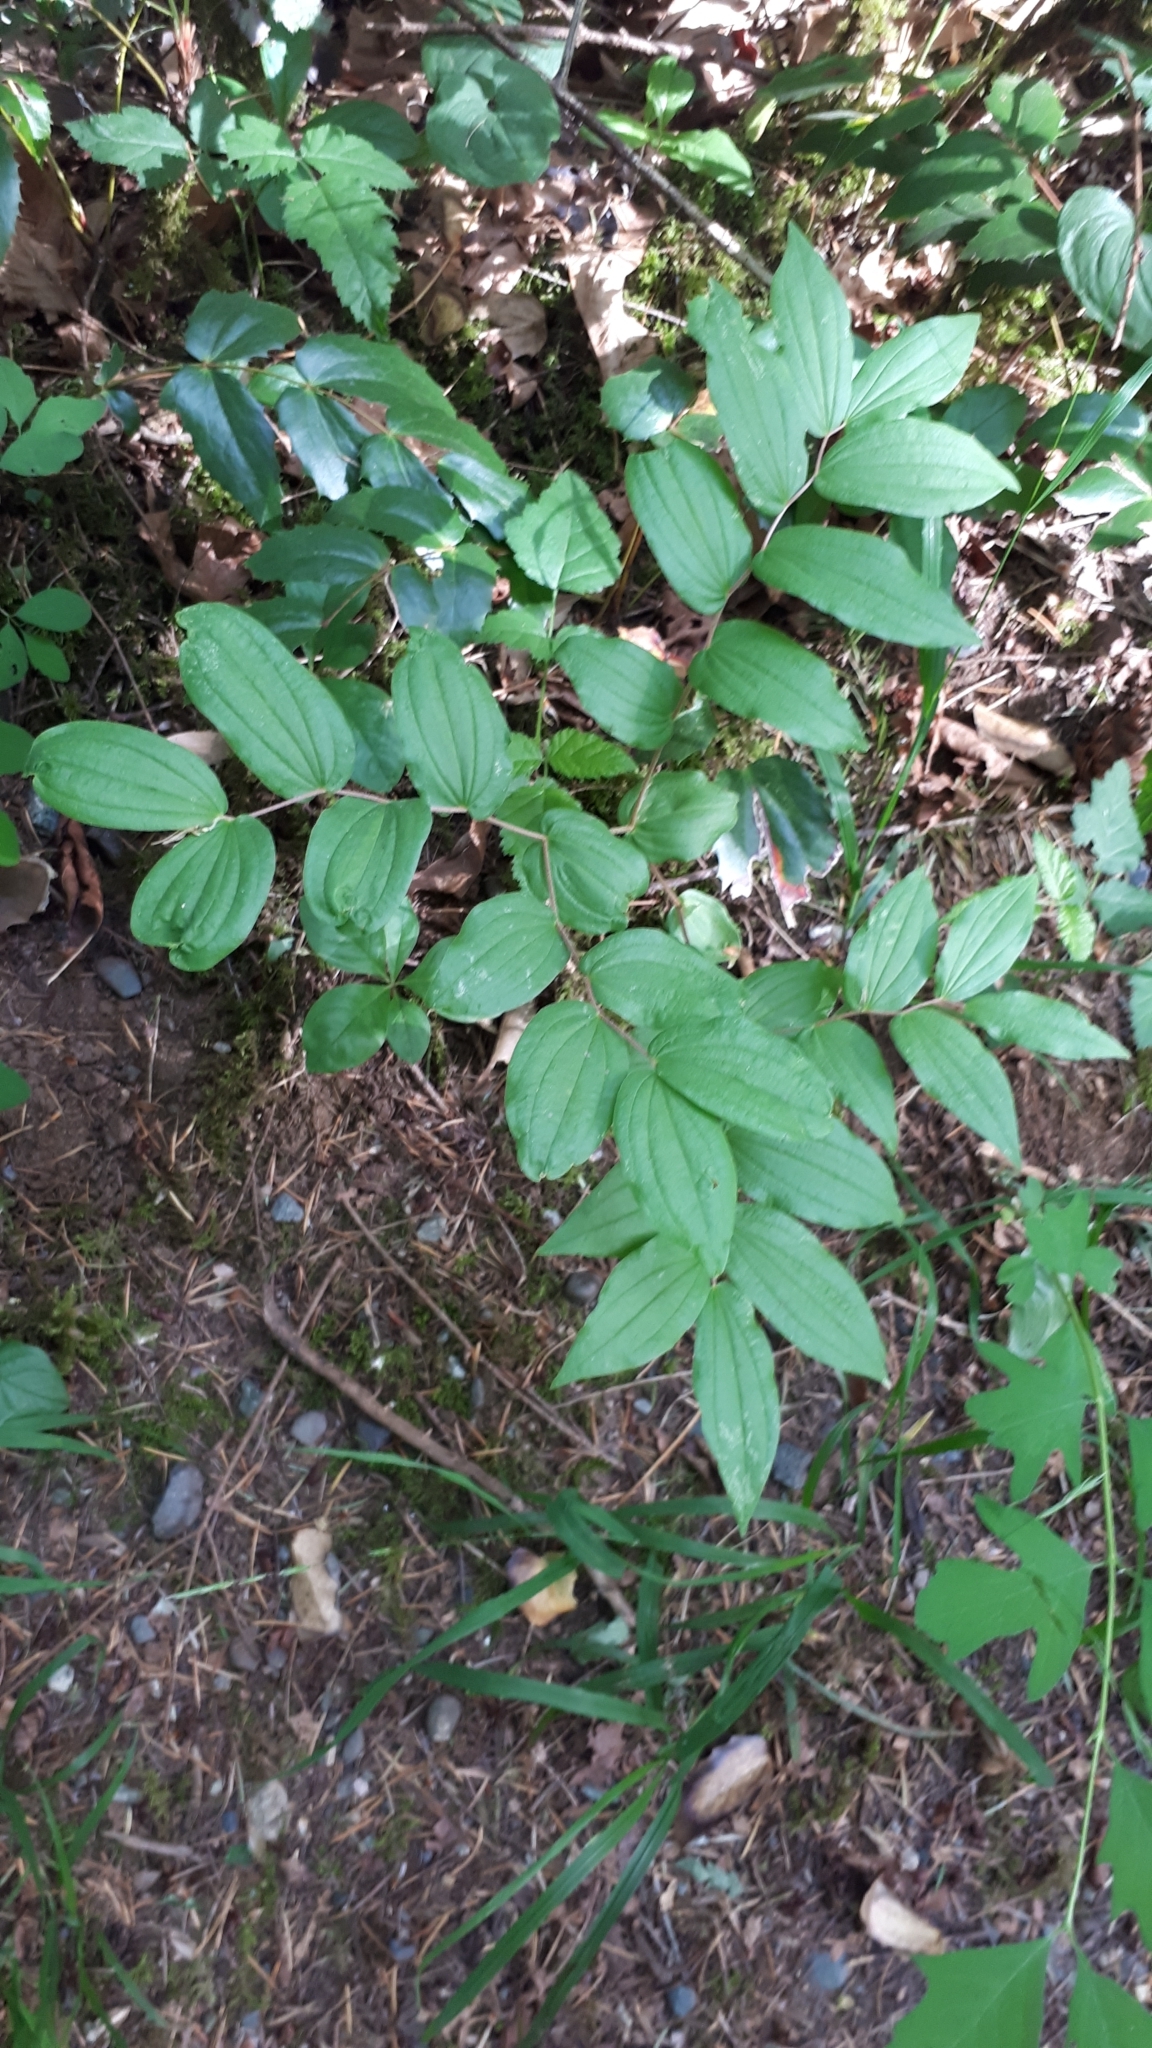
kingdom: Plantae
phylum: Tracheophyta
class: Liliopsida
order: Liliales
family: Liliaceae
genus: Prosartes
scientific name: Prosartes hookeri
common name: Fairy-bells
